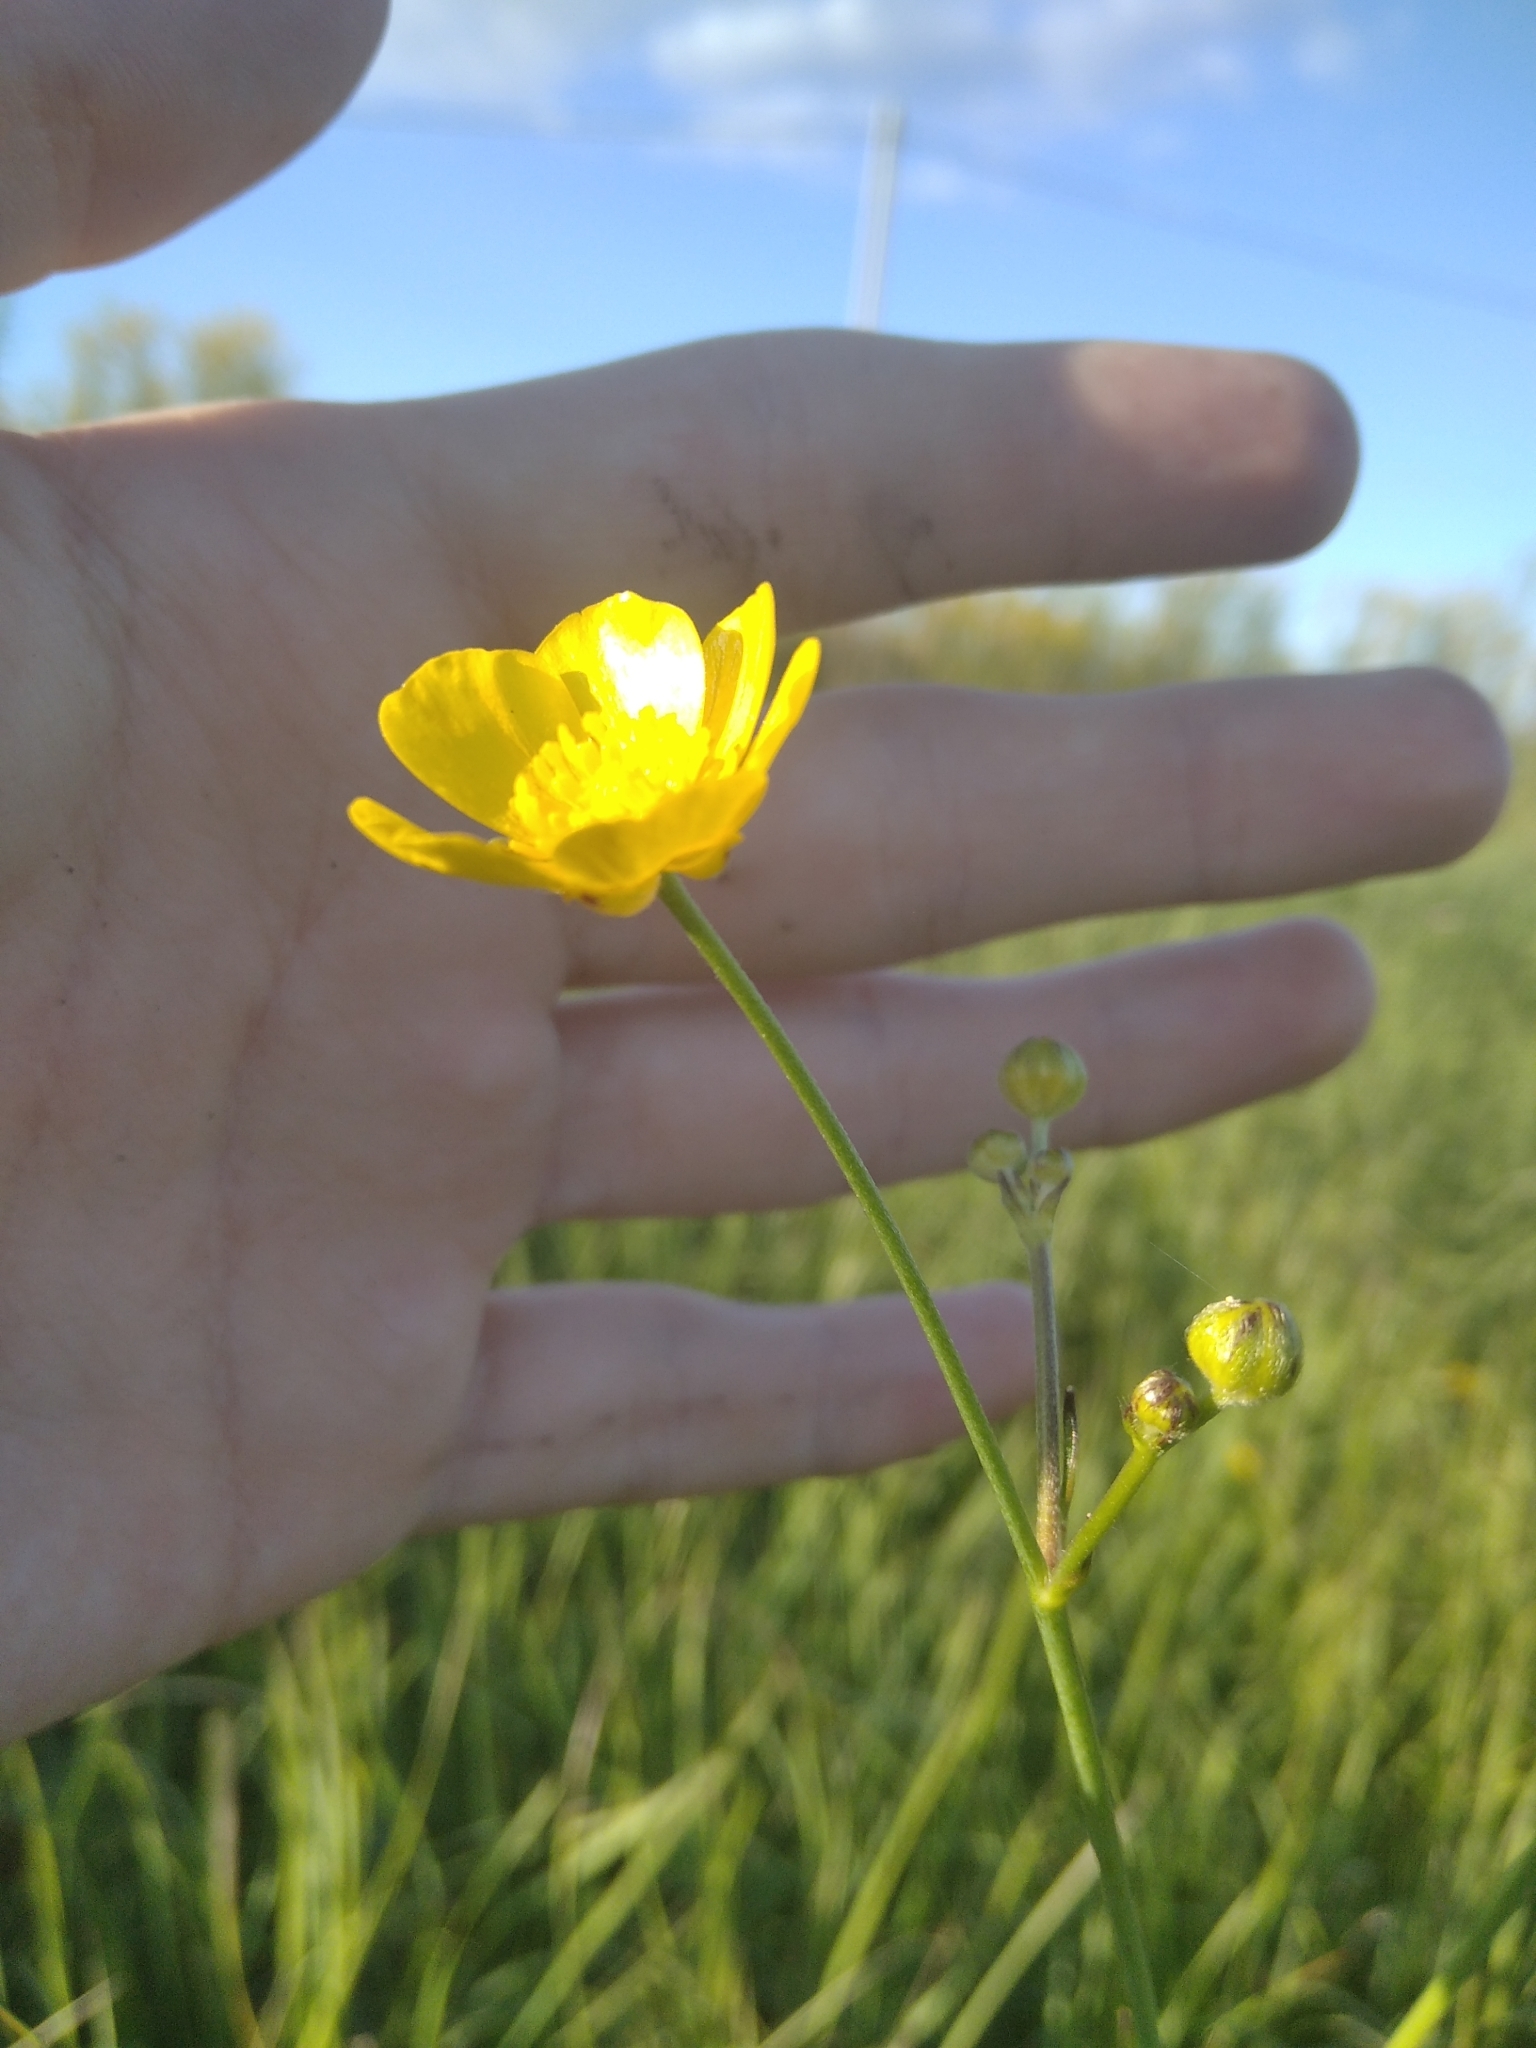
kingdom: Plantae
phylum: Tracheophyta
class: Magnoliopsida
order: Ranunculales
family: Ranunculaceae
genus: Ranunculus
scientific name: Ranunculus acris
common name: Meadow buttercup
